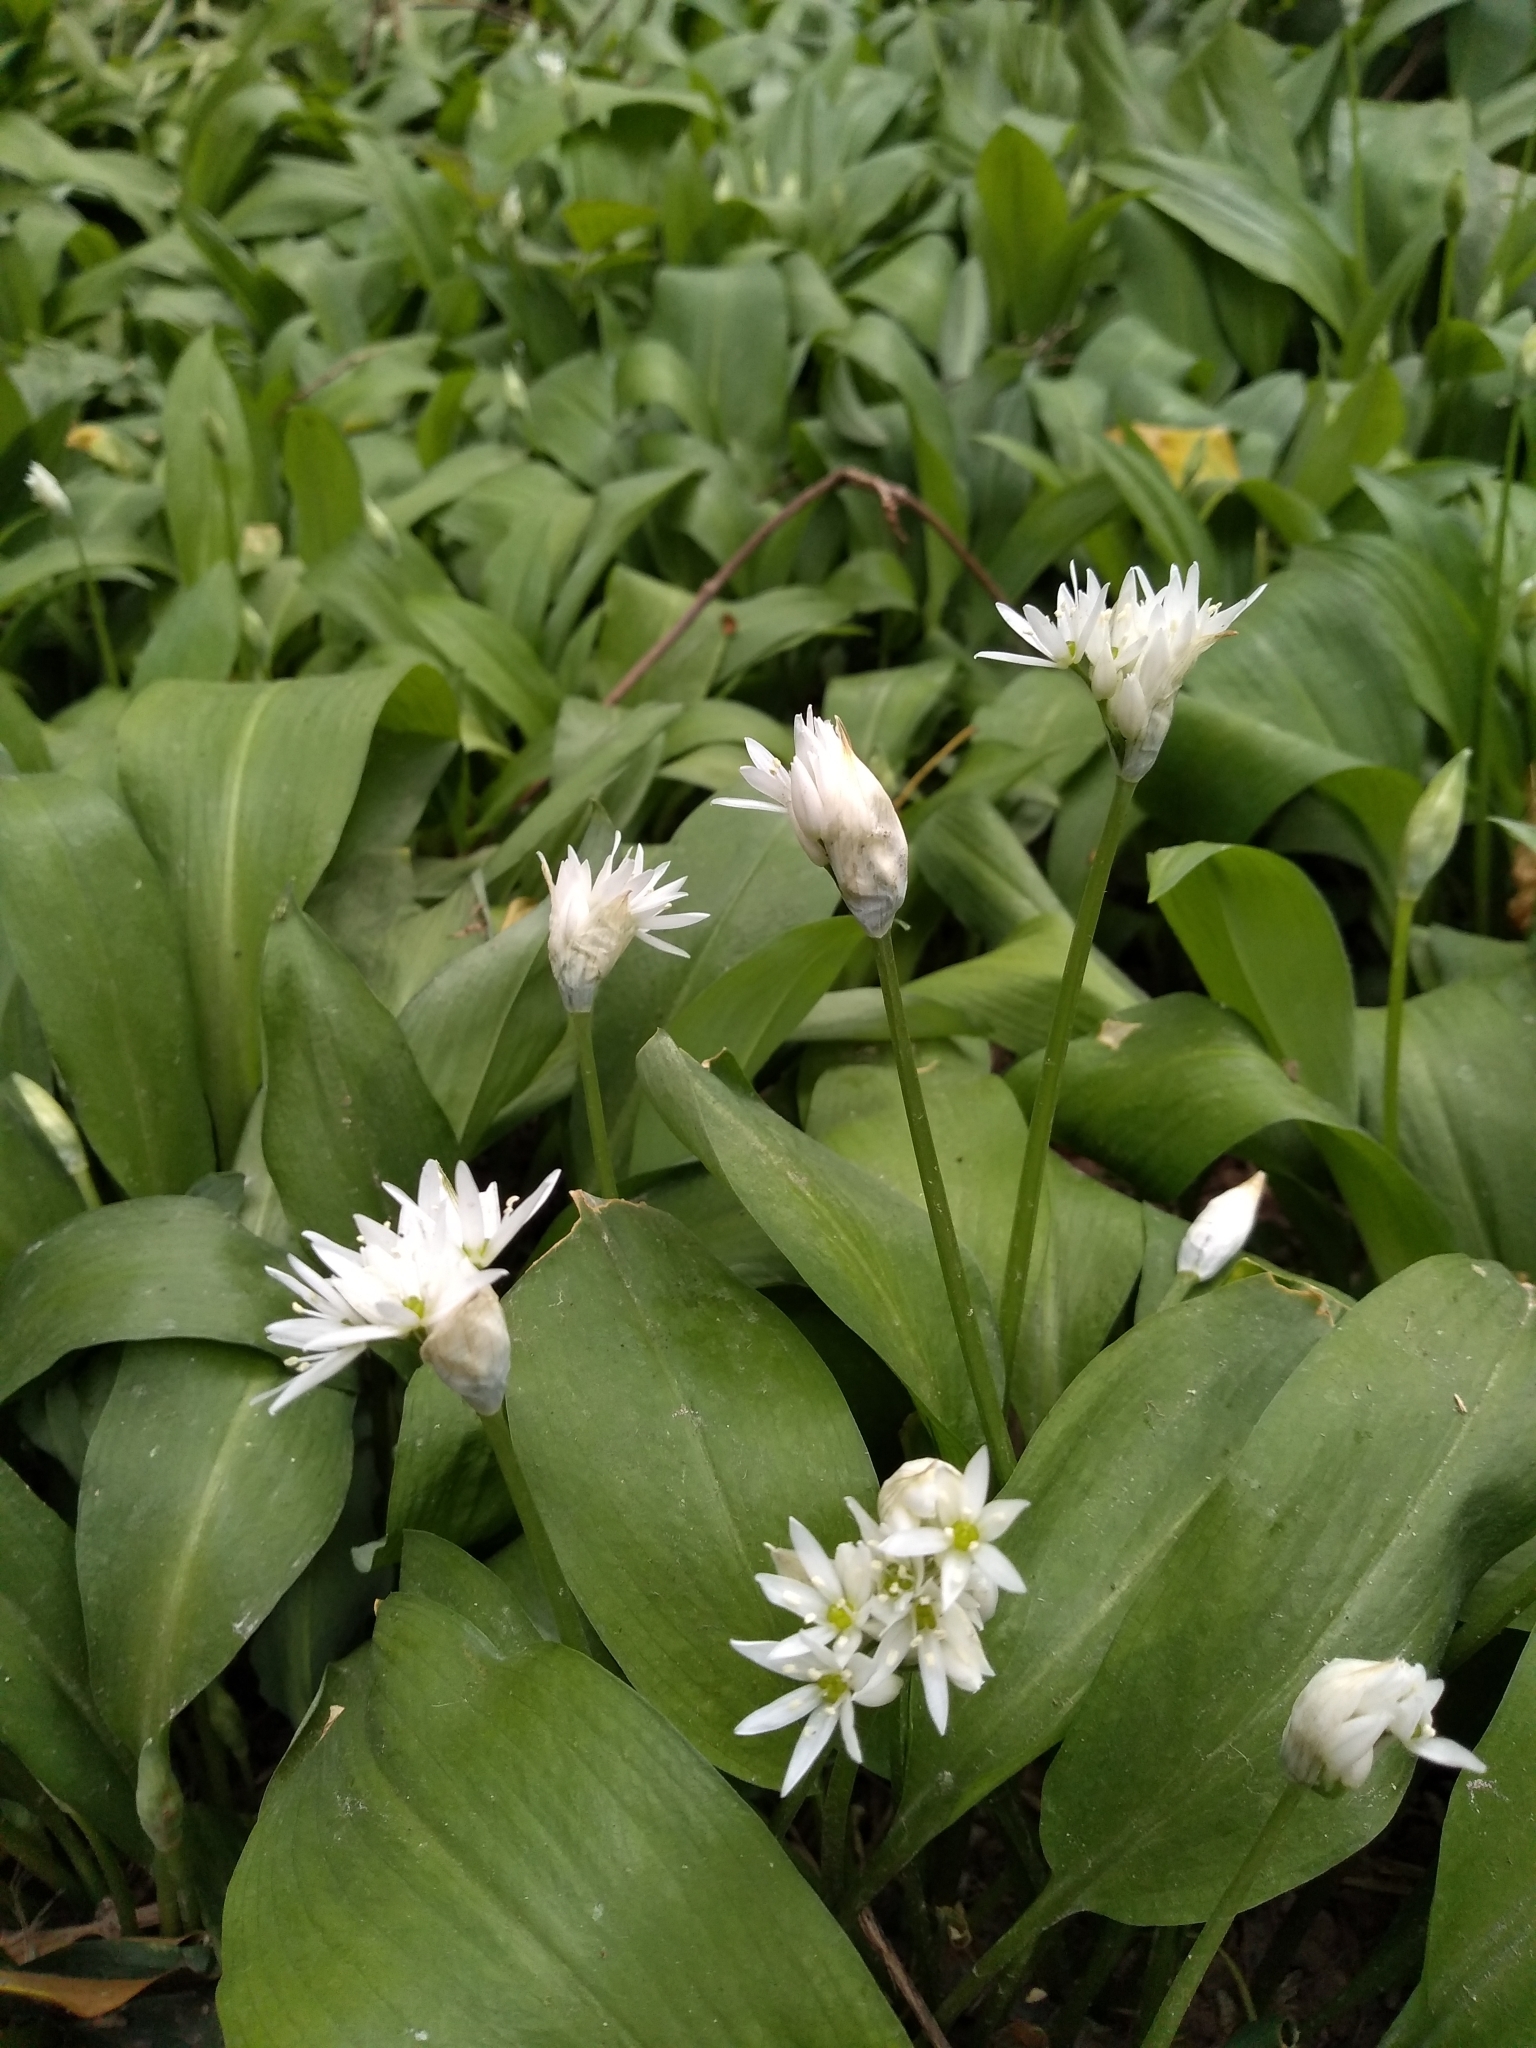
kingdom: Plantae
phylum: Tracheophyta
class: Liliopsida
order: Asparagales
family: Amaryllidaceae
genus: Allium
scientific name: Allium ursinum
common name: Ramsons
